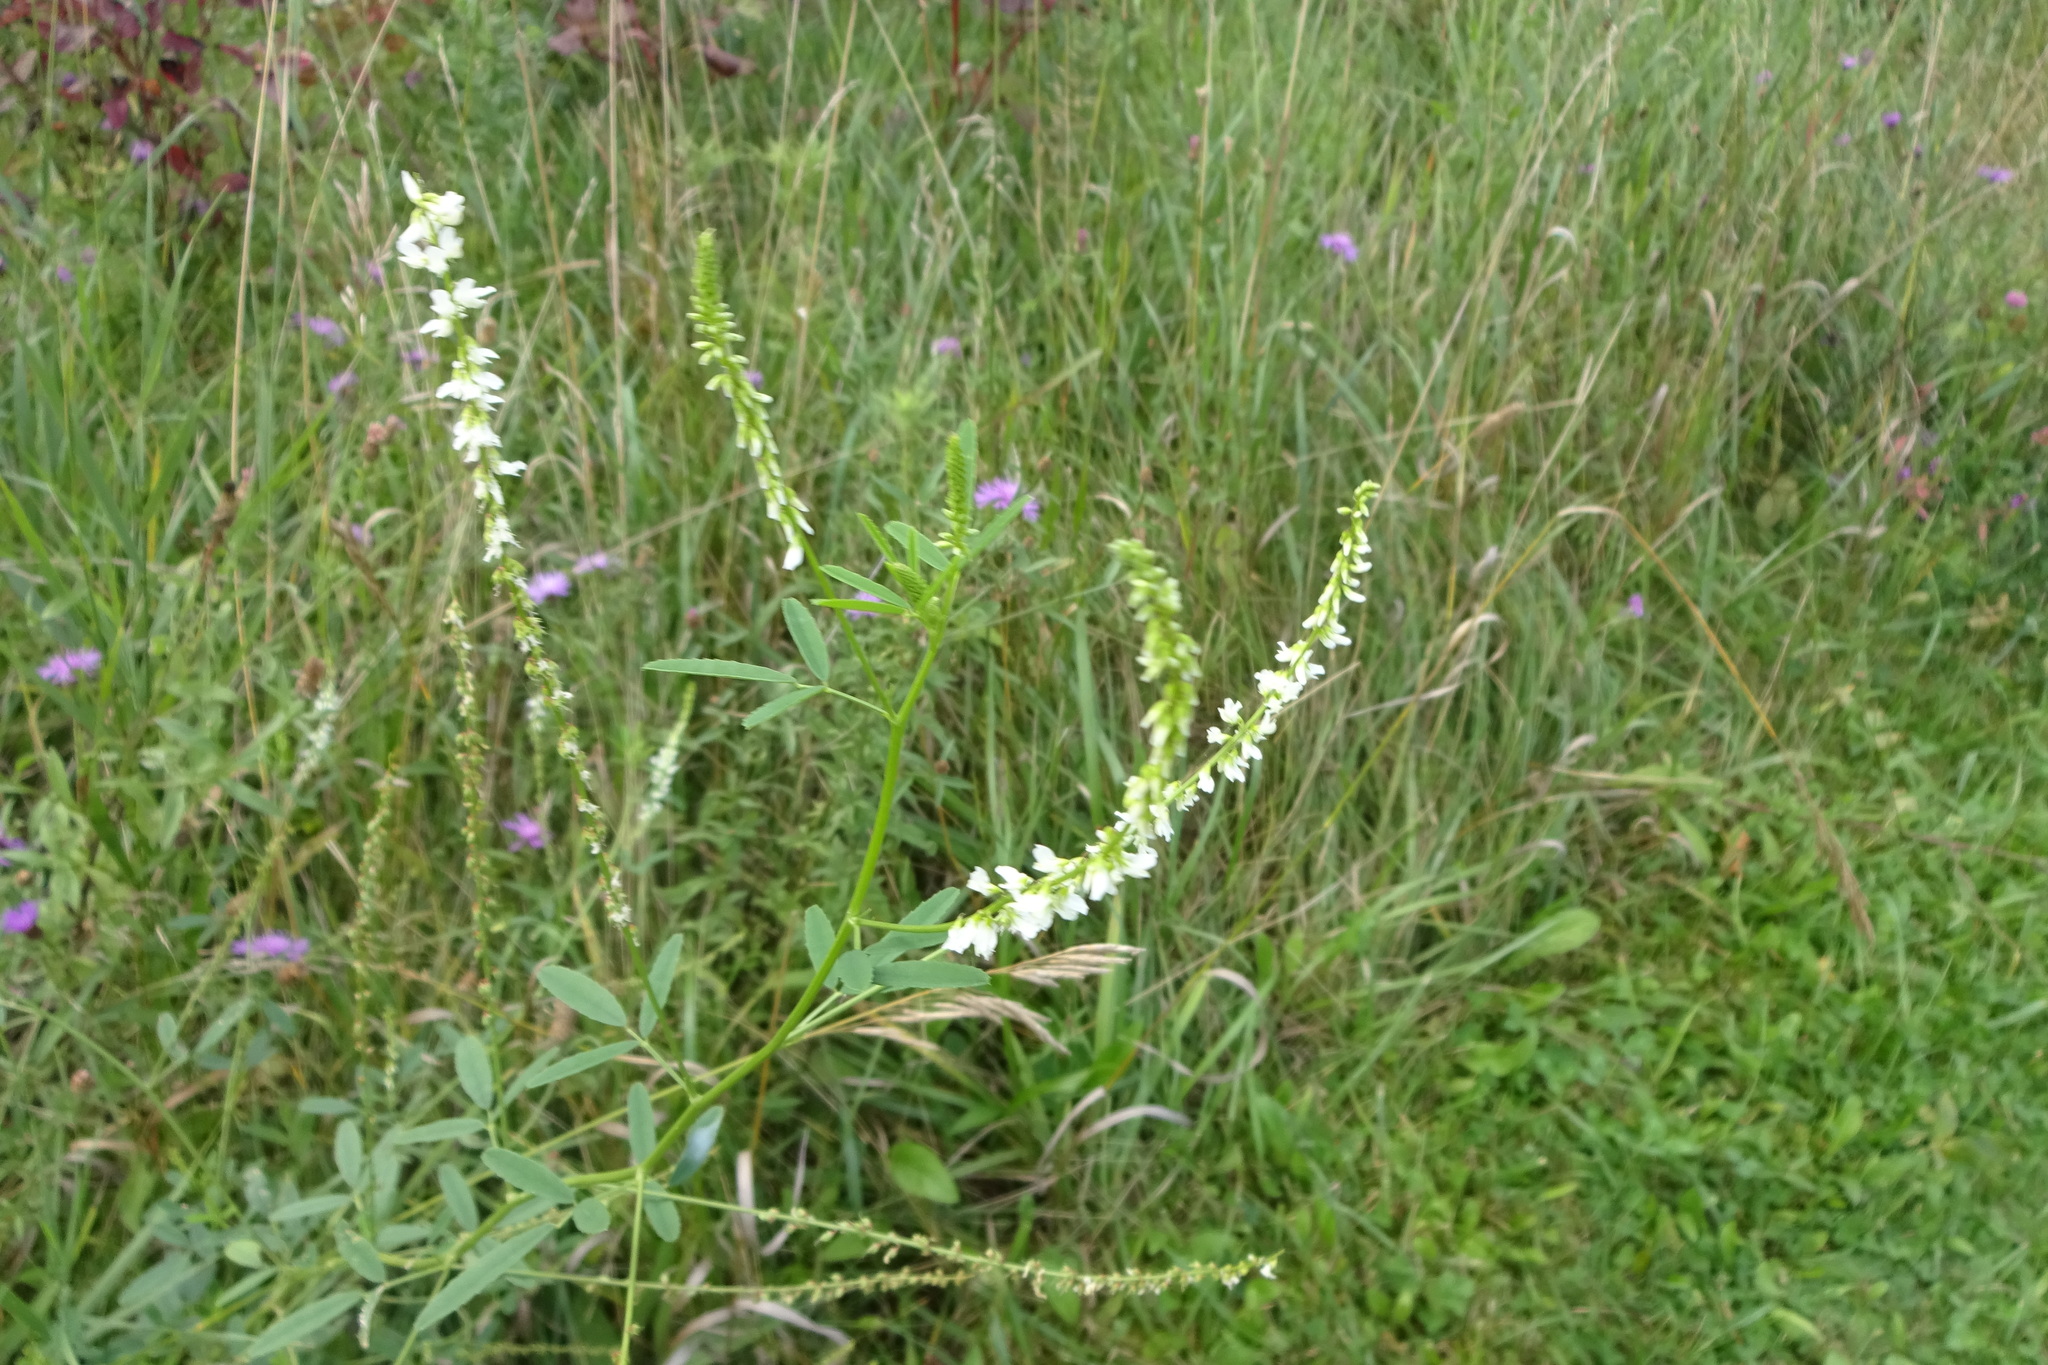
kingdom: Plantae
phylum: Tracheophyta
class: Magnoliopsida
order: Fabales
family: Fabaceae
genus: Melilotus
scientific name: Melilotus albus
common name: White melilot
